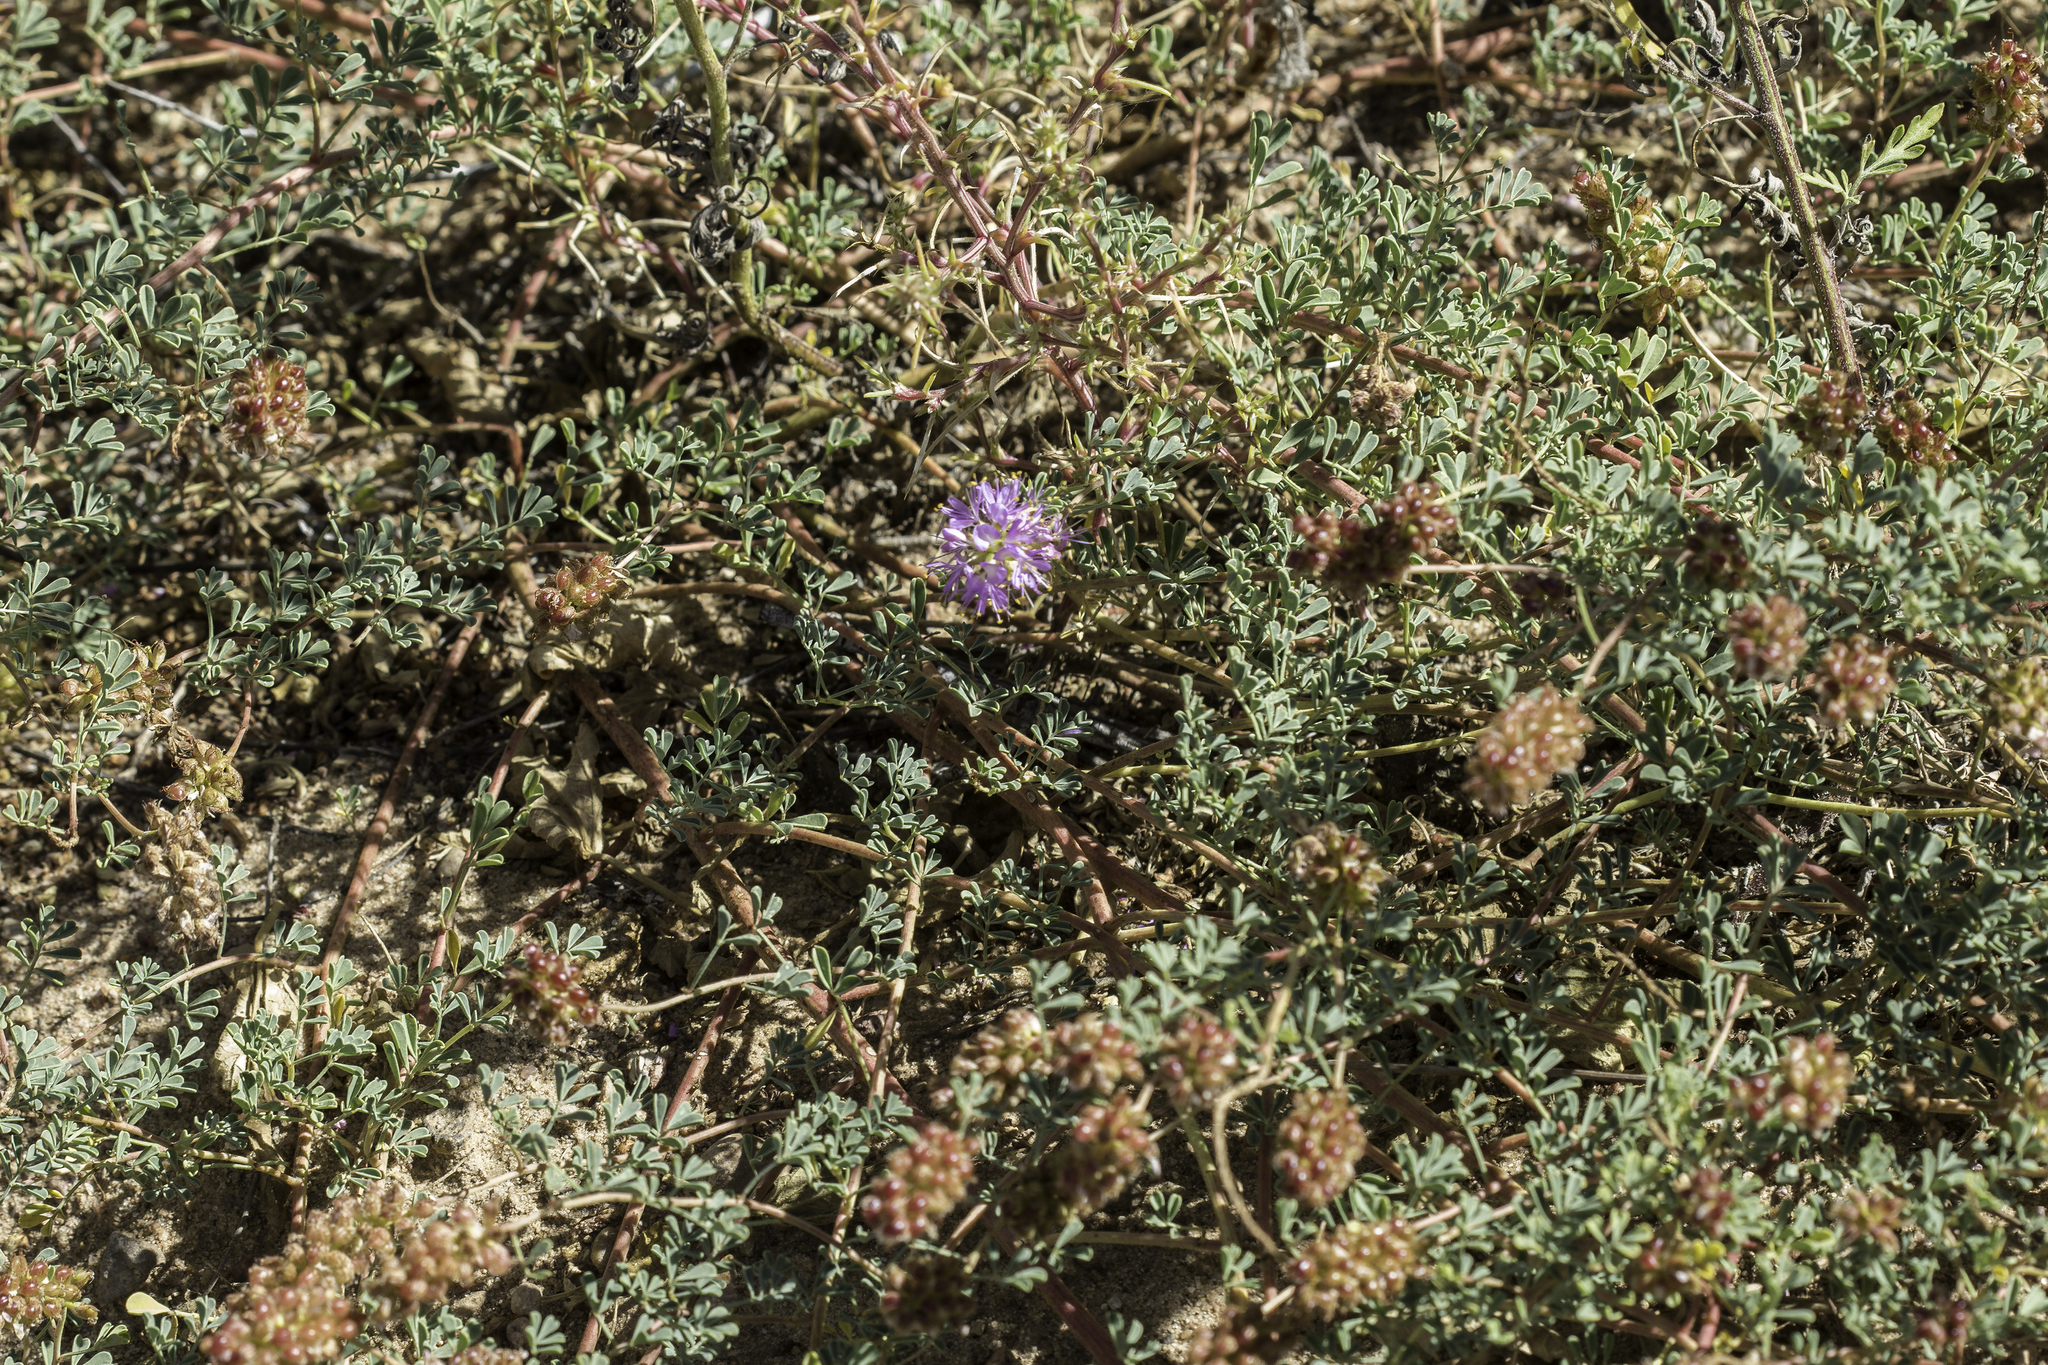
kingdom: Plantae
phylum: Tracheophyta
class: Magnoliopsida
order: Fabales
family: Fabaceae
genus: Dalea
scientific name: Dalea scariosa
